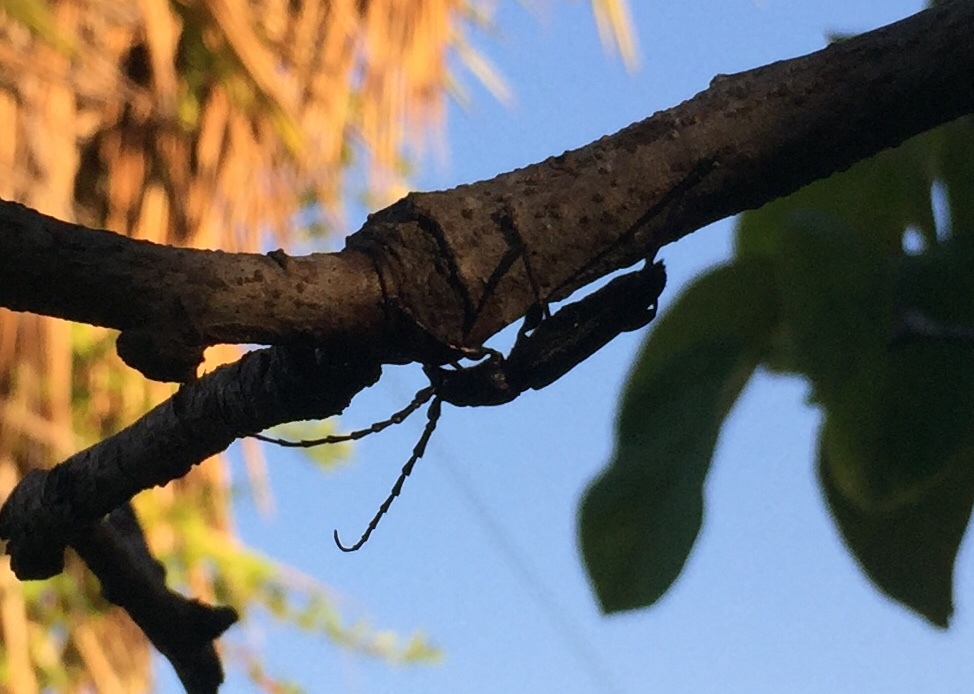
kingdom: Animalia
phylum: Arthropoda
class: Insecta
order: Coleoptera
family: Cerambycidae
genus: Ropalopus
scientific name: Ropalopus clavipes
